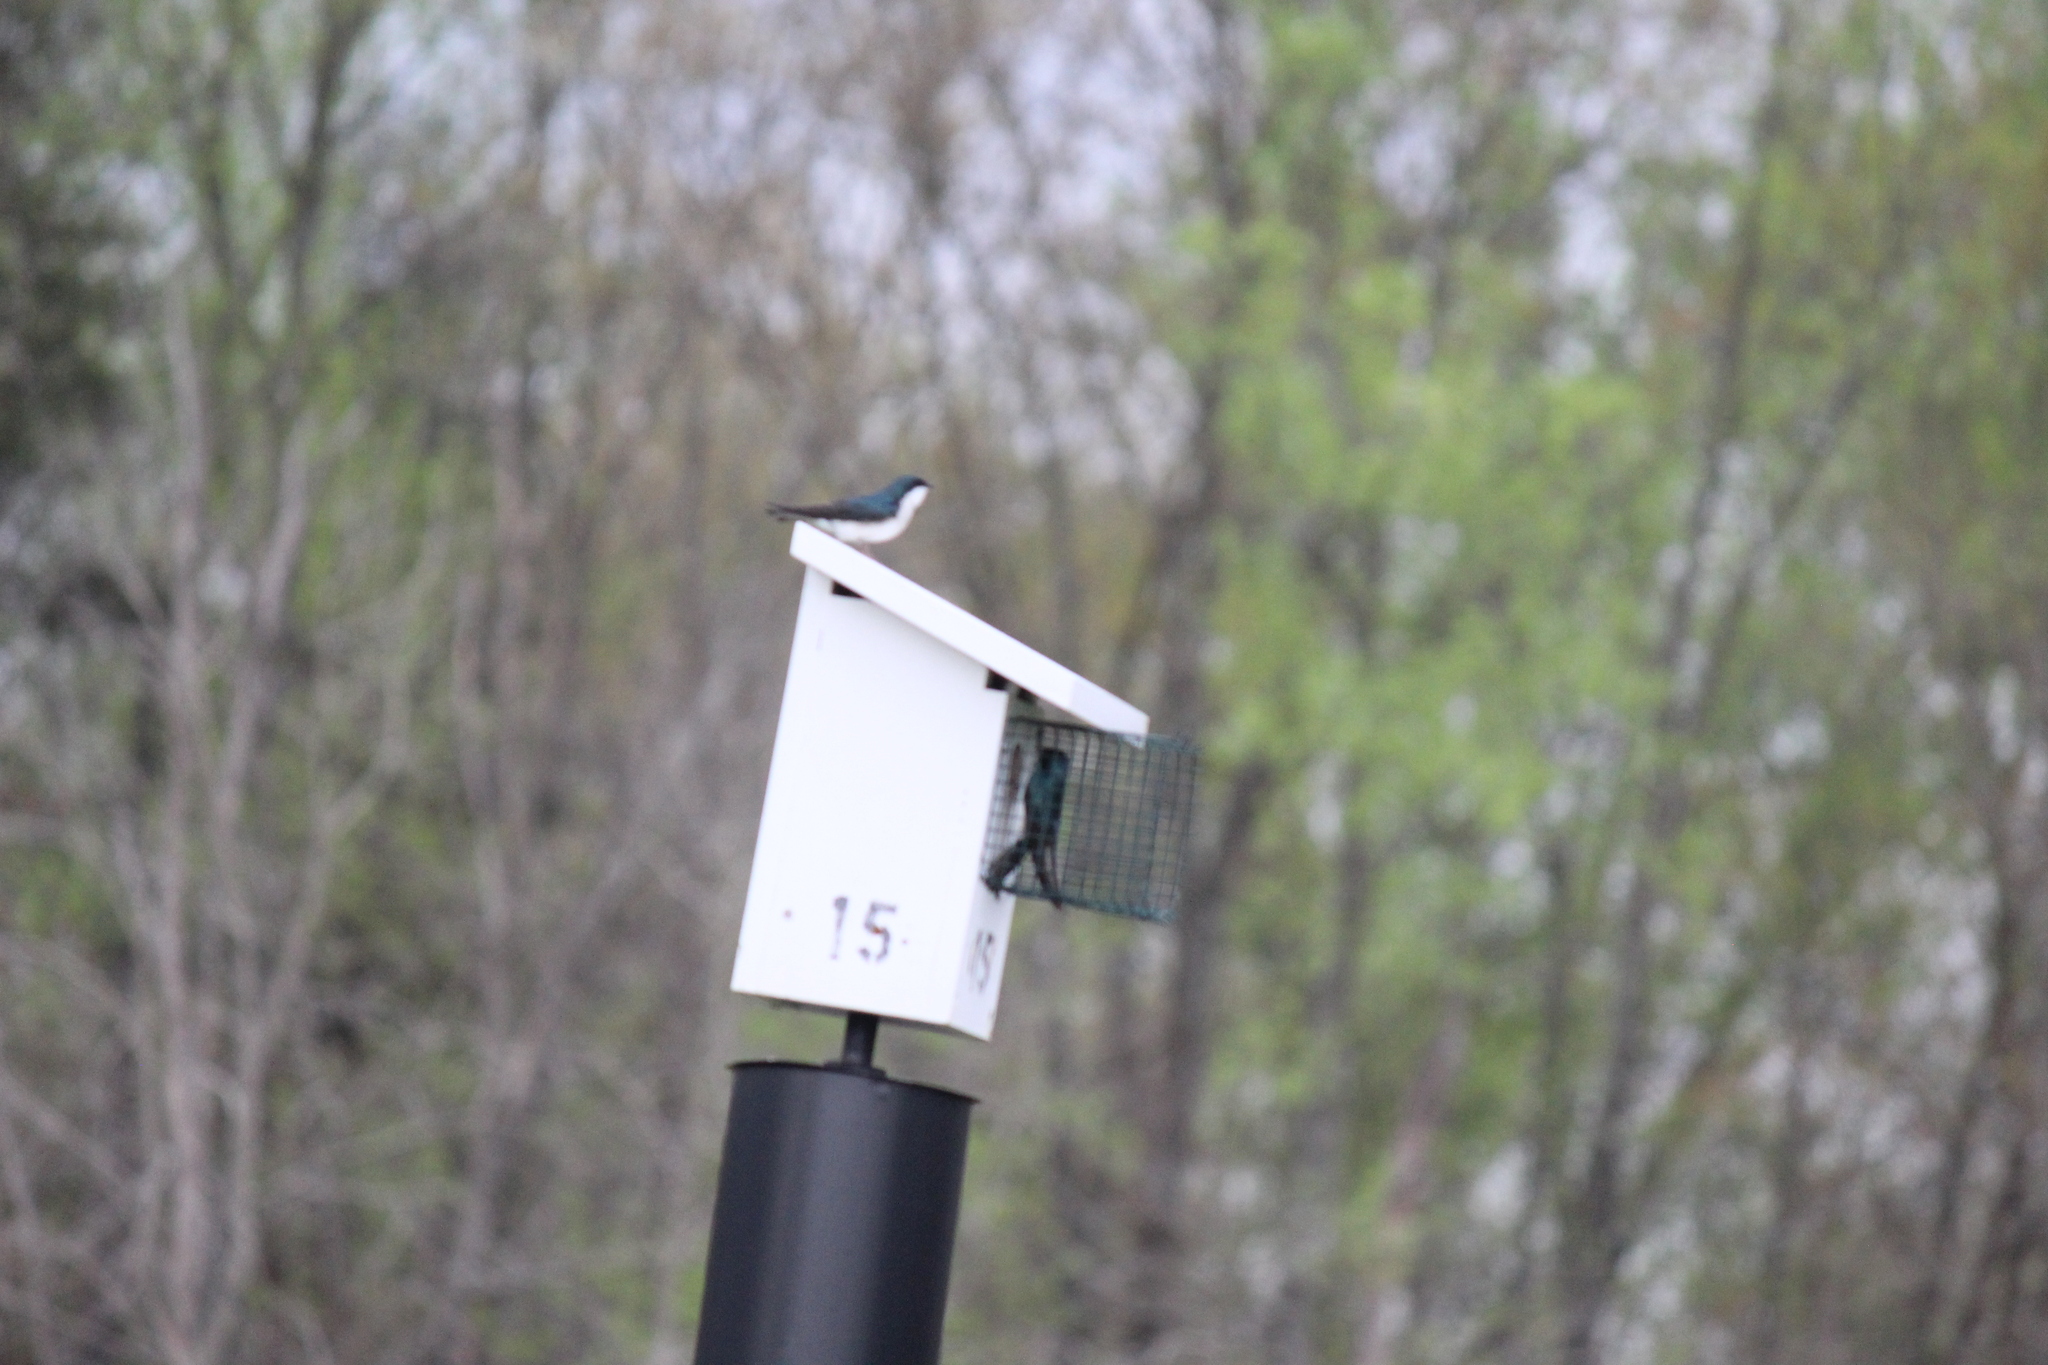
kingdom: Animalia
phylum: Chordata
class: Aves
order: Passeriformes
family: Hirundinidae
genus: Tachycineta
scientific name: Tachycineta bicolor
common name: Tree swallow
